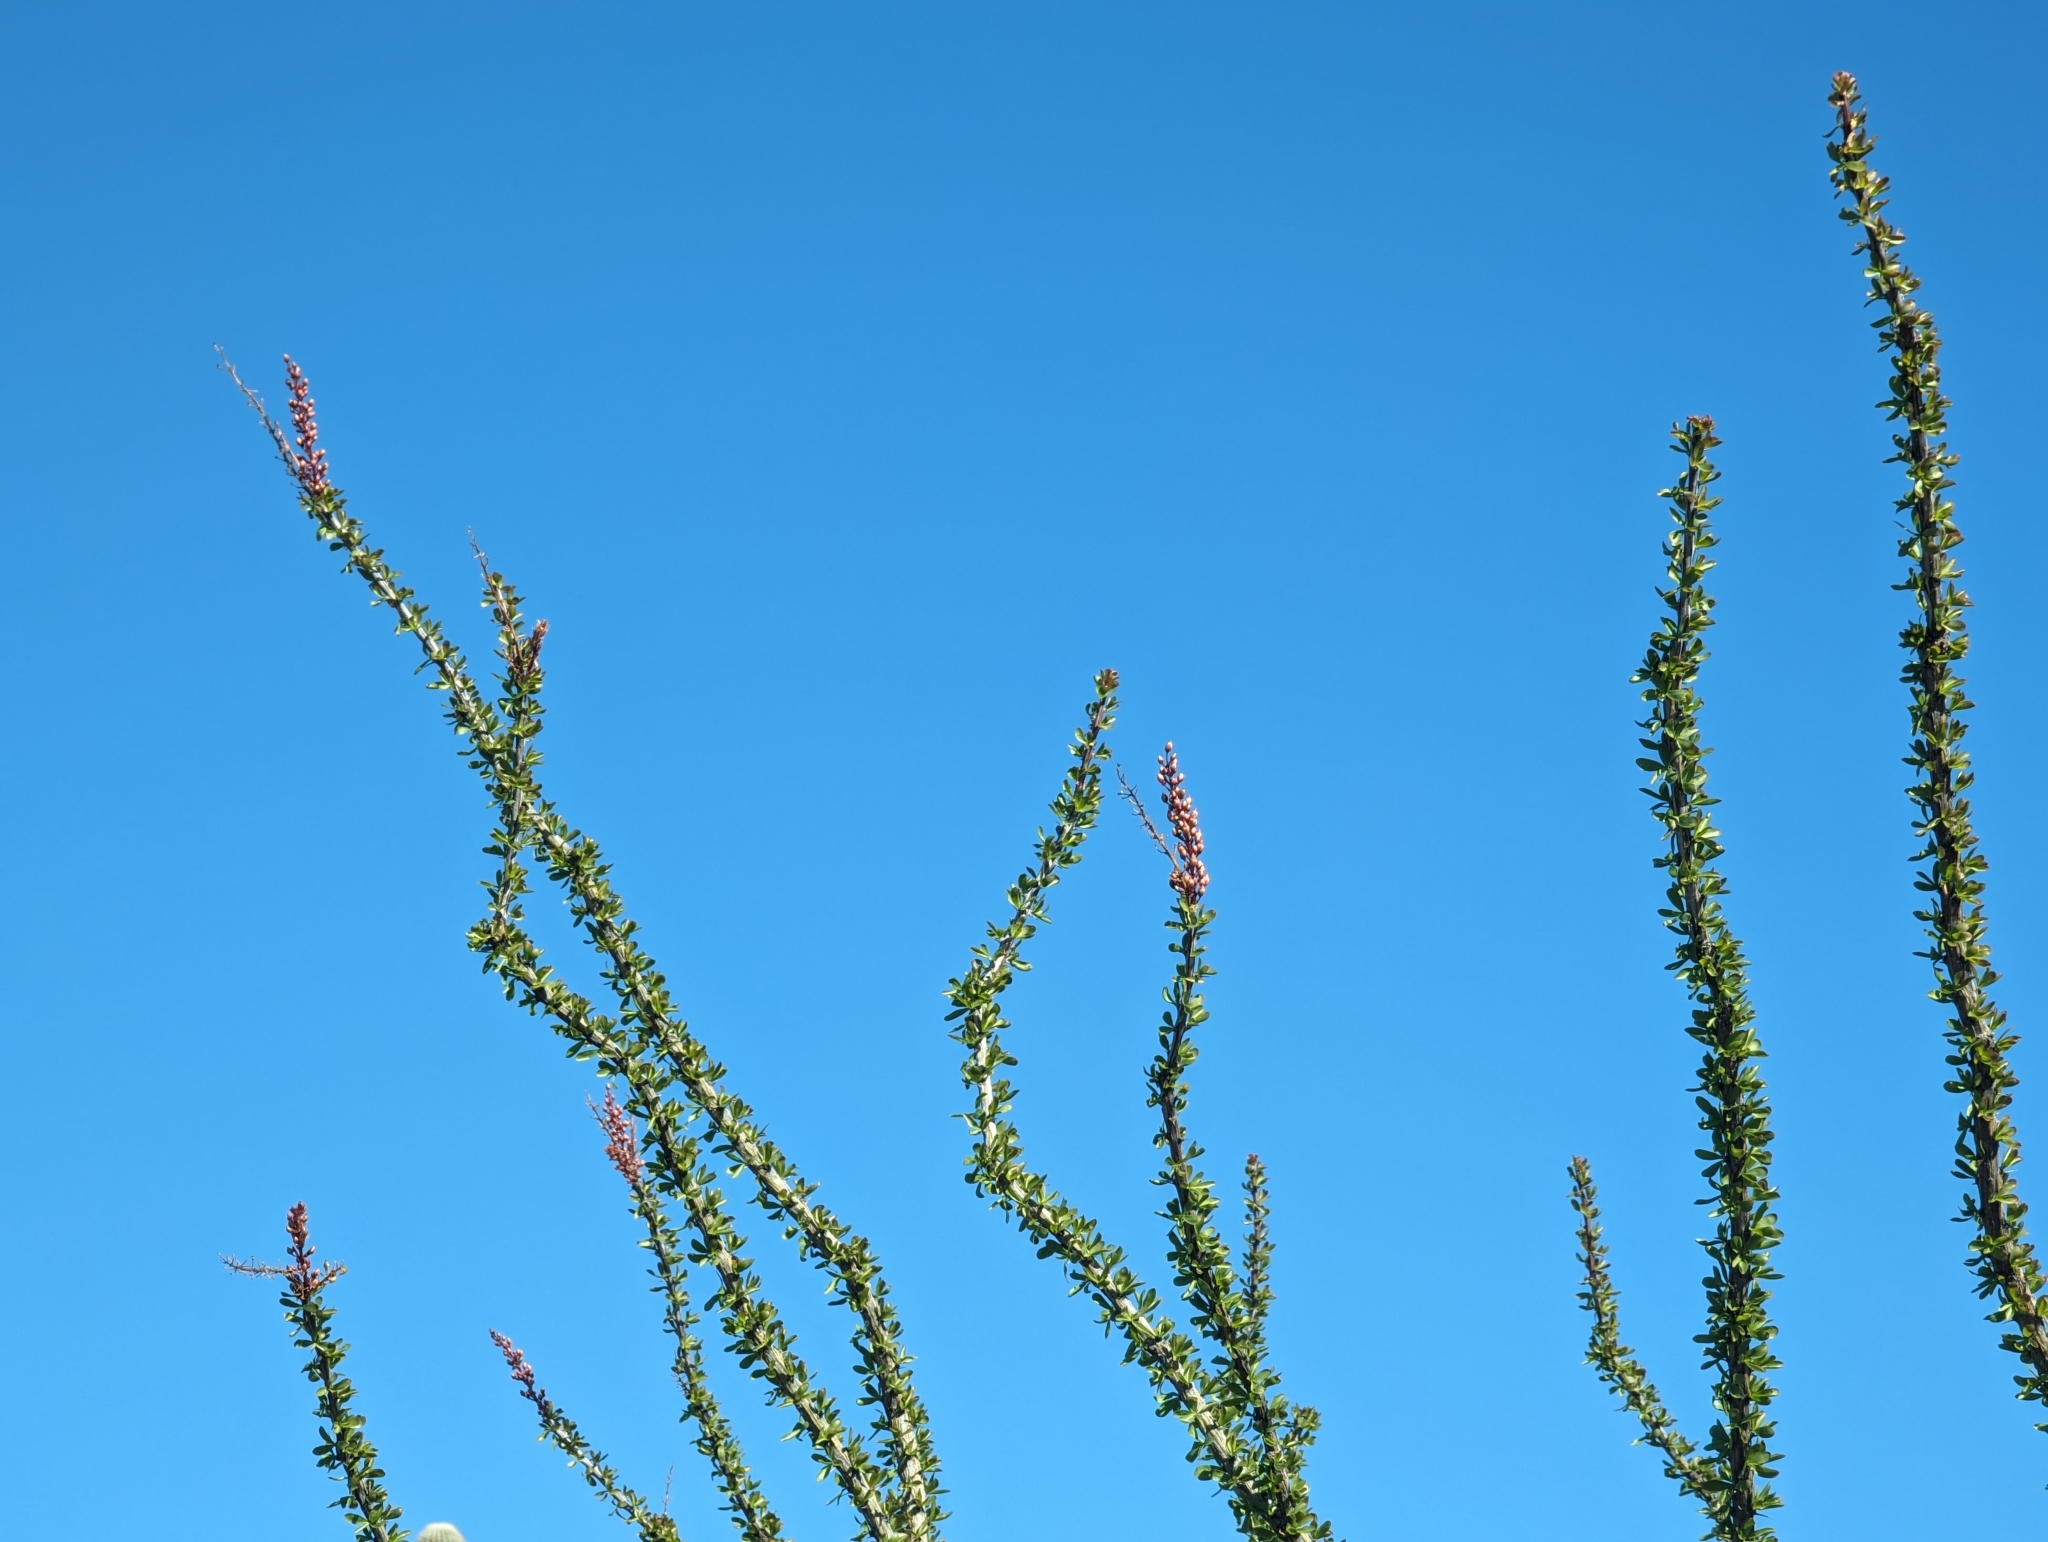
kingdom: Plantae
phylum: Tracheophyta
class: Magnoliopsida
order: Ericales
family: Fouquieriaceae
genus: Fouquieria
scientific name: Fouquieria splendens
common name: Vine-cactus
